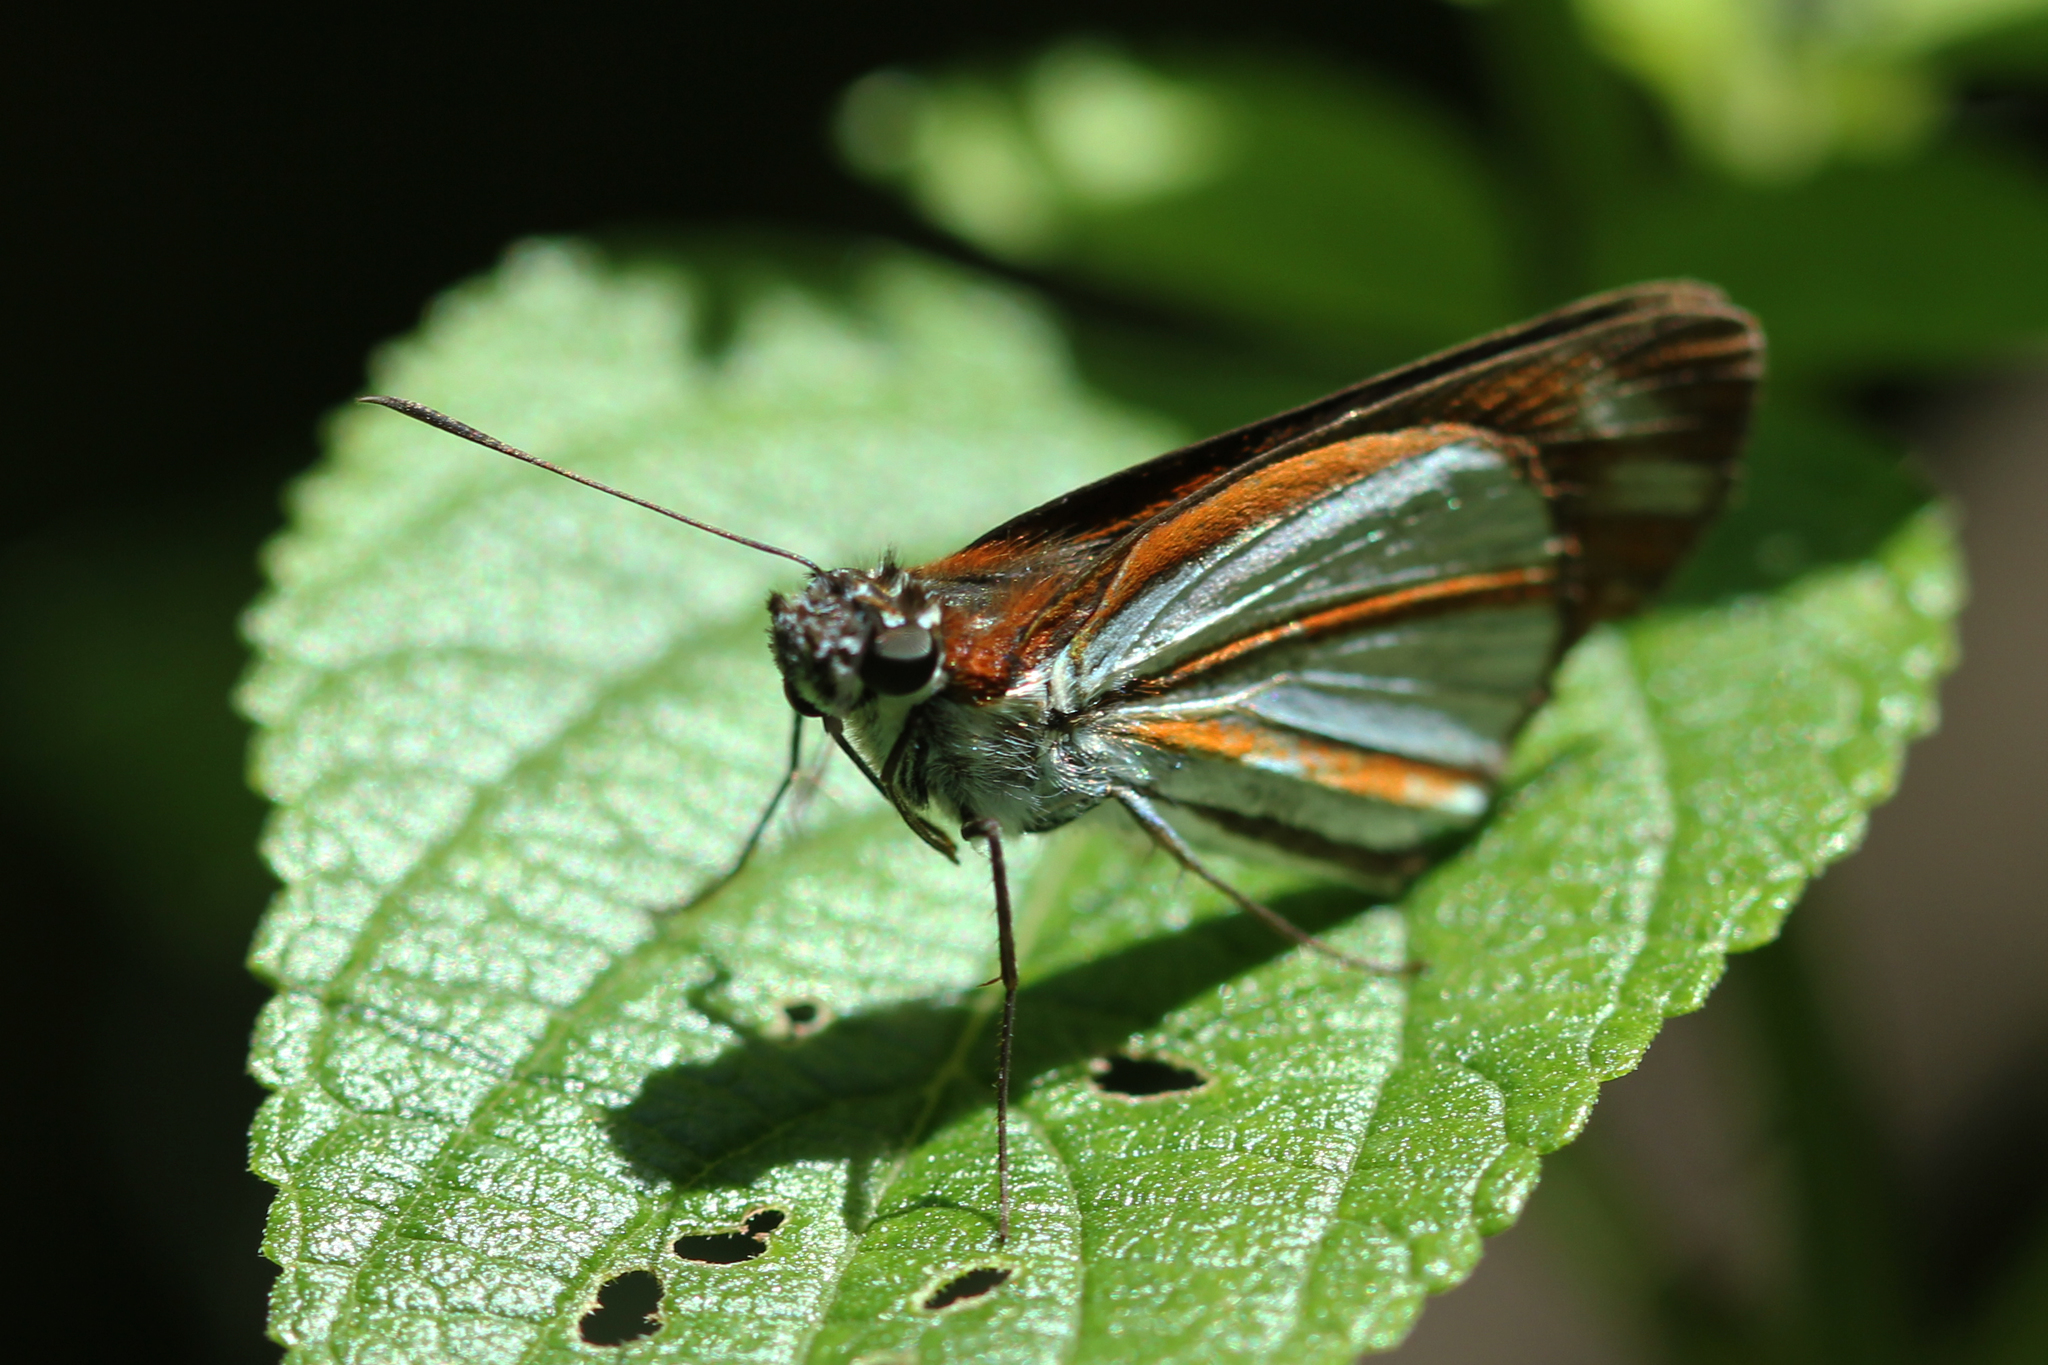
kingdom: Animalia
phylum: Arthropoda
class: Insecta
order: Lepidoptera
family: Hesperiidae
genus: Corra
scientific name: Corra
